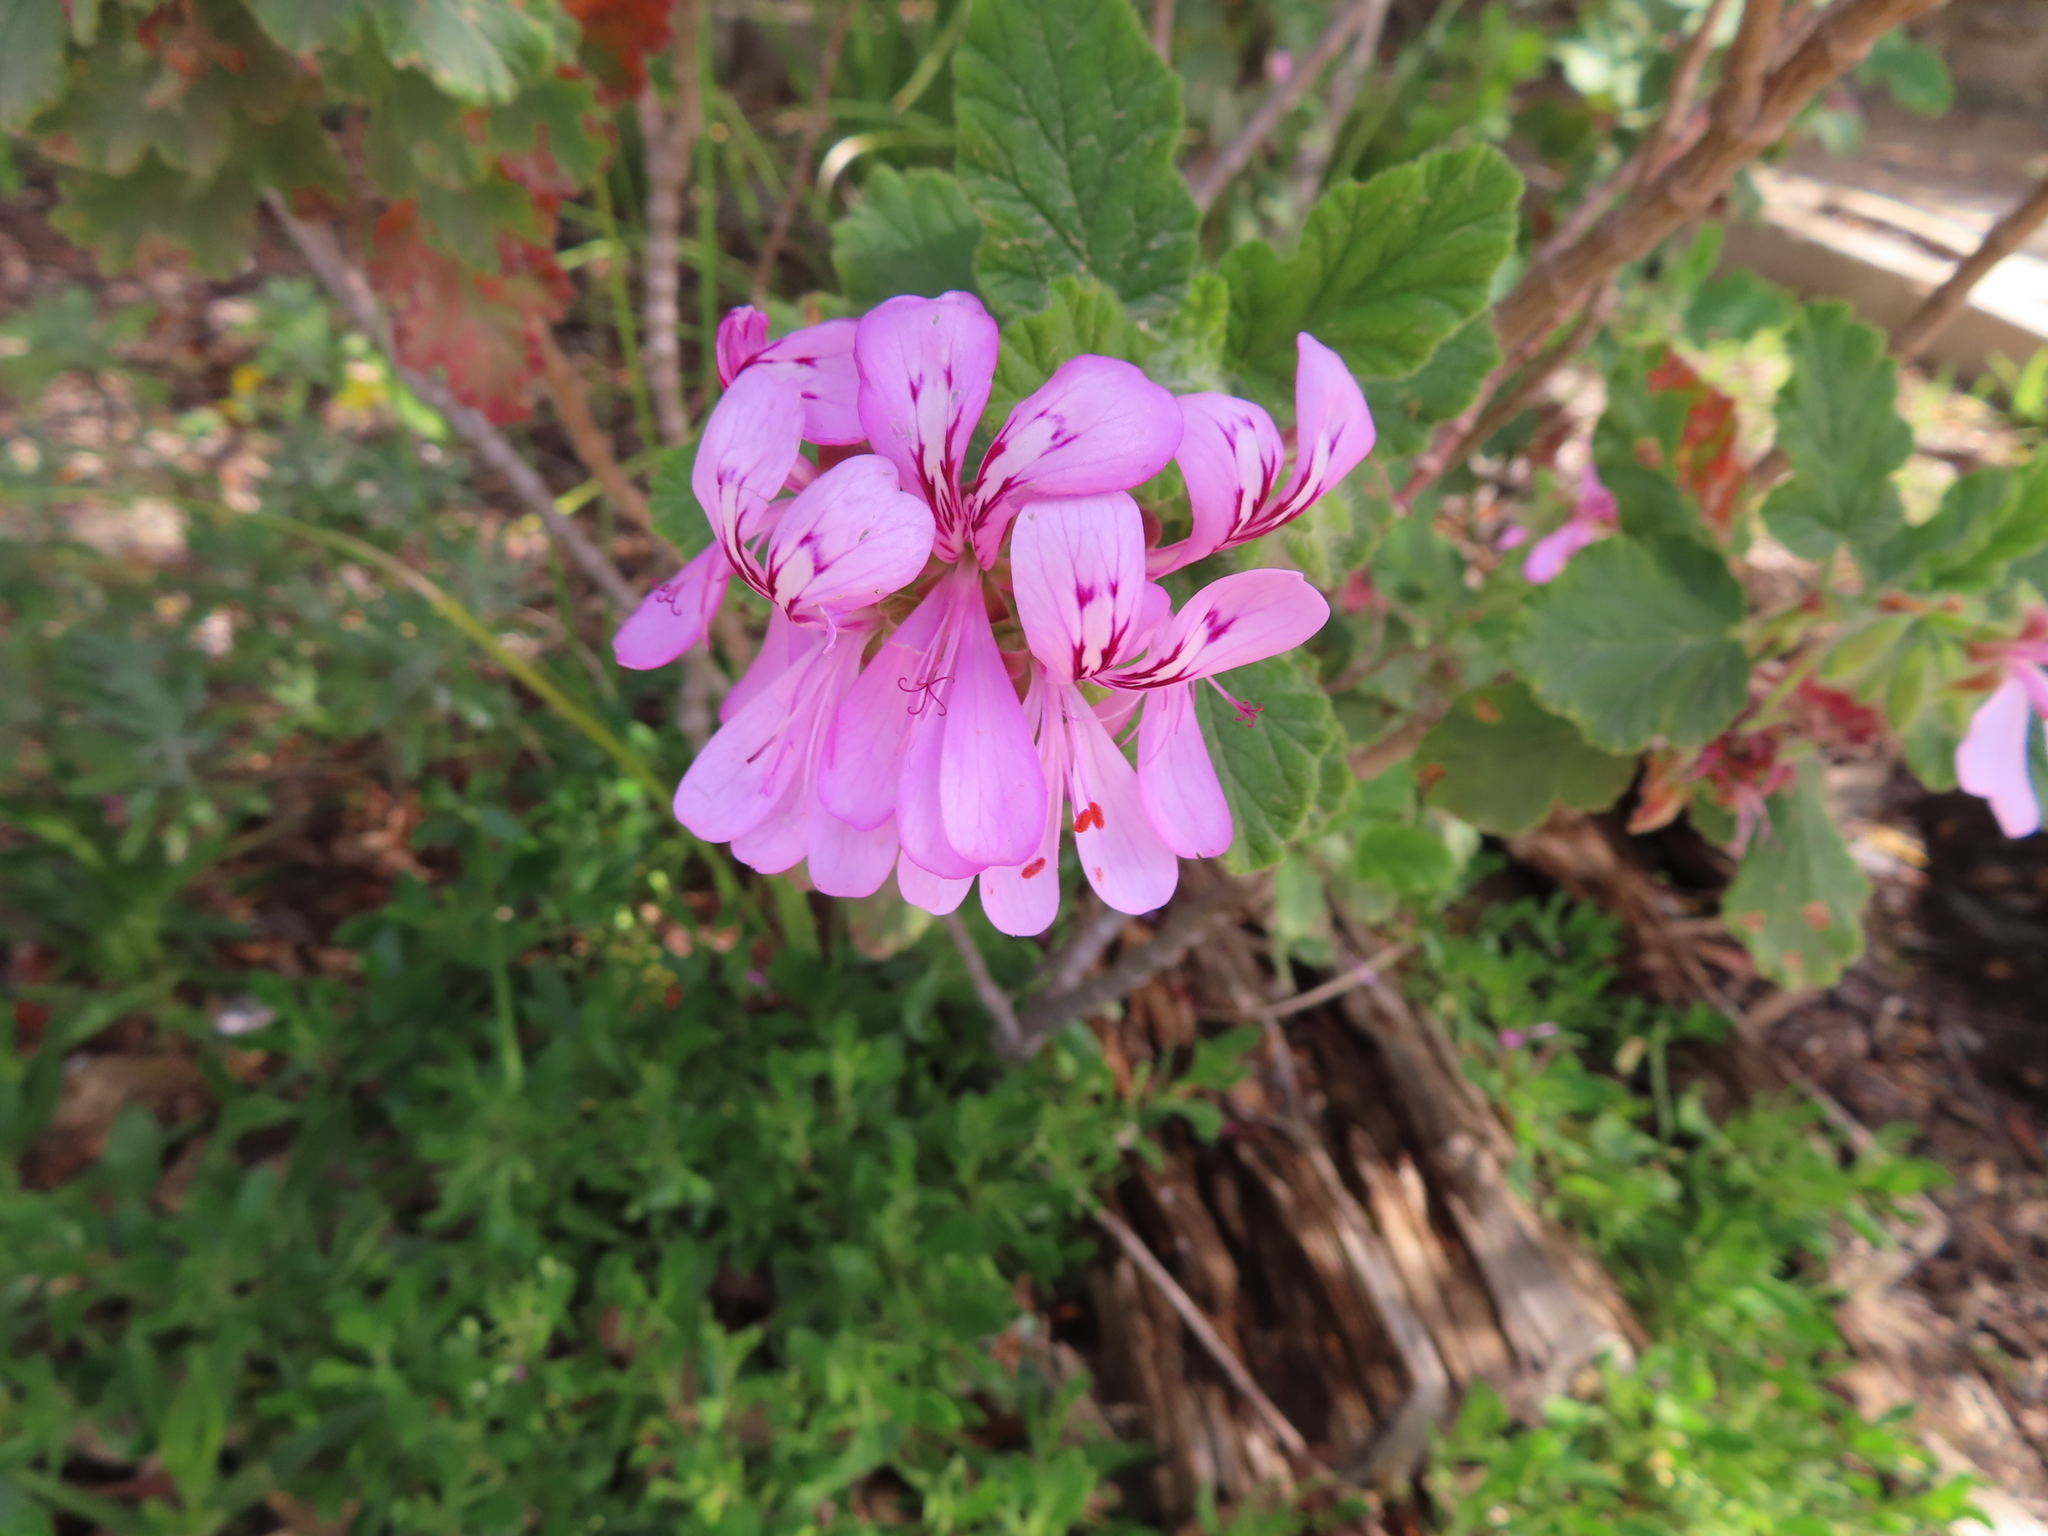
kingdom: Plantae
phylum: Tracheophyta
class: Magnoliopsida
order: Geraniales
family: Geraniaceae
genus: Pelargonium
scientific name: Pelargonium panduriforme
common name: Oakleaf garden geranium
